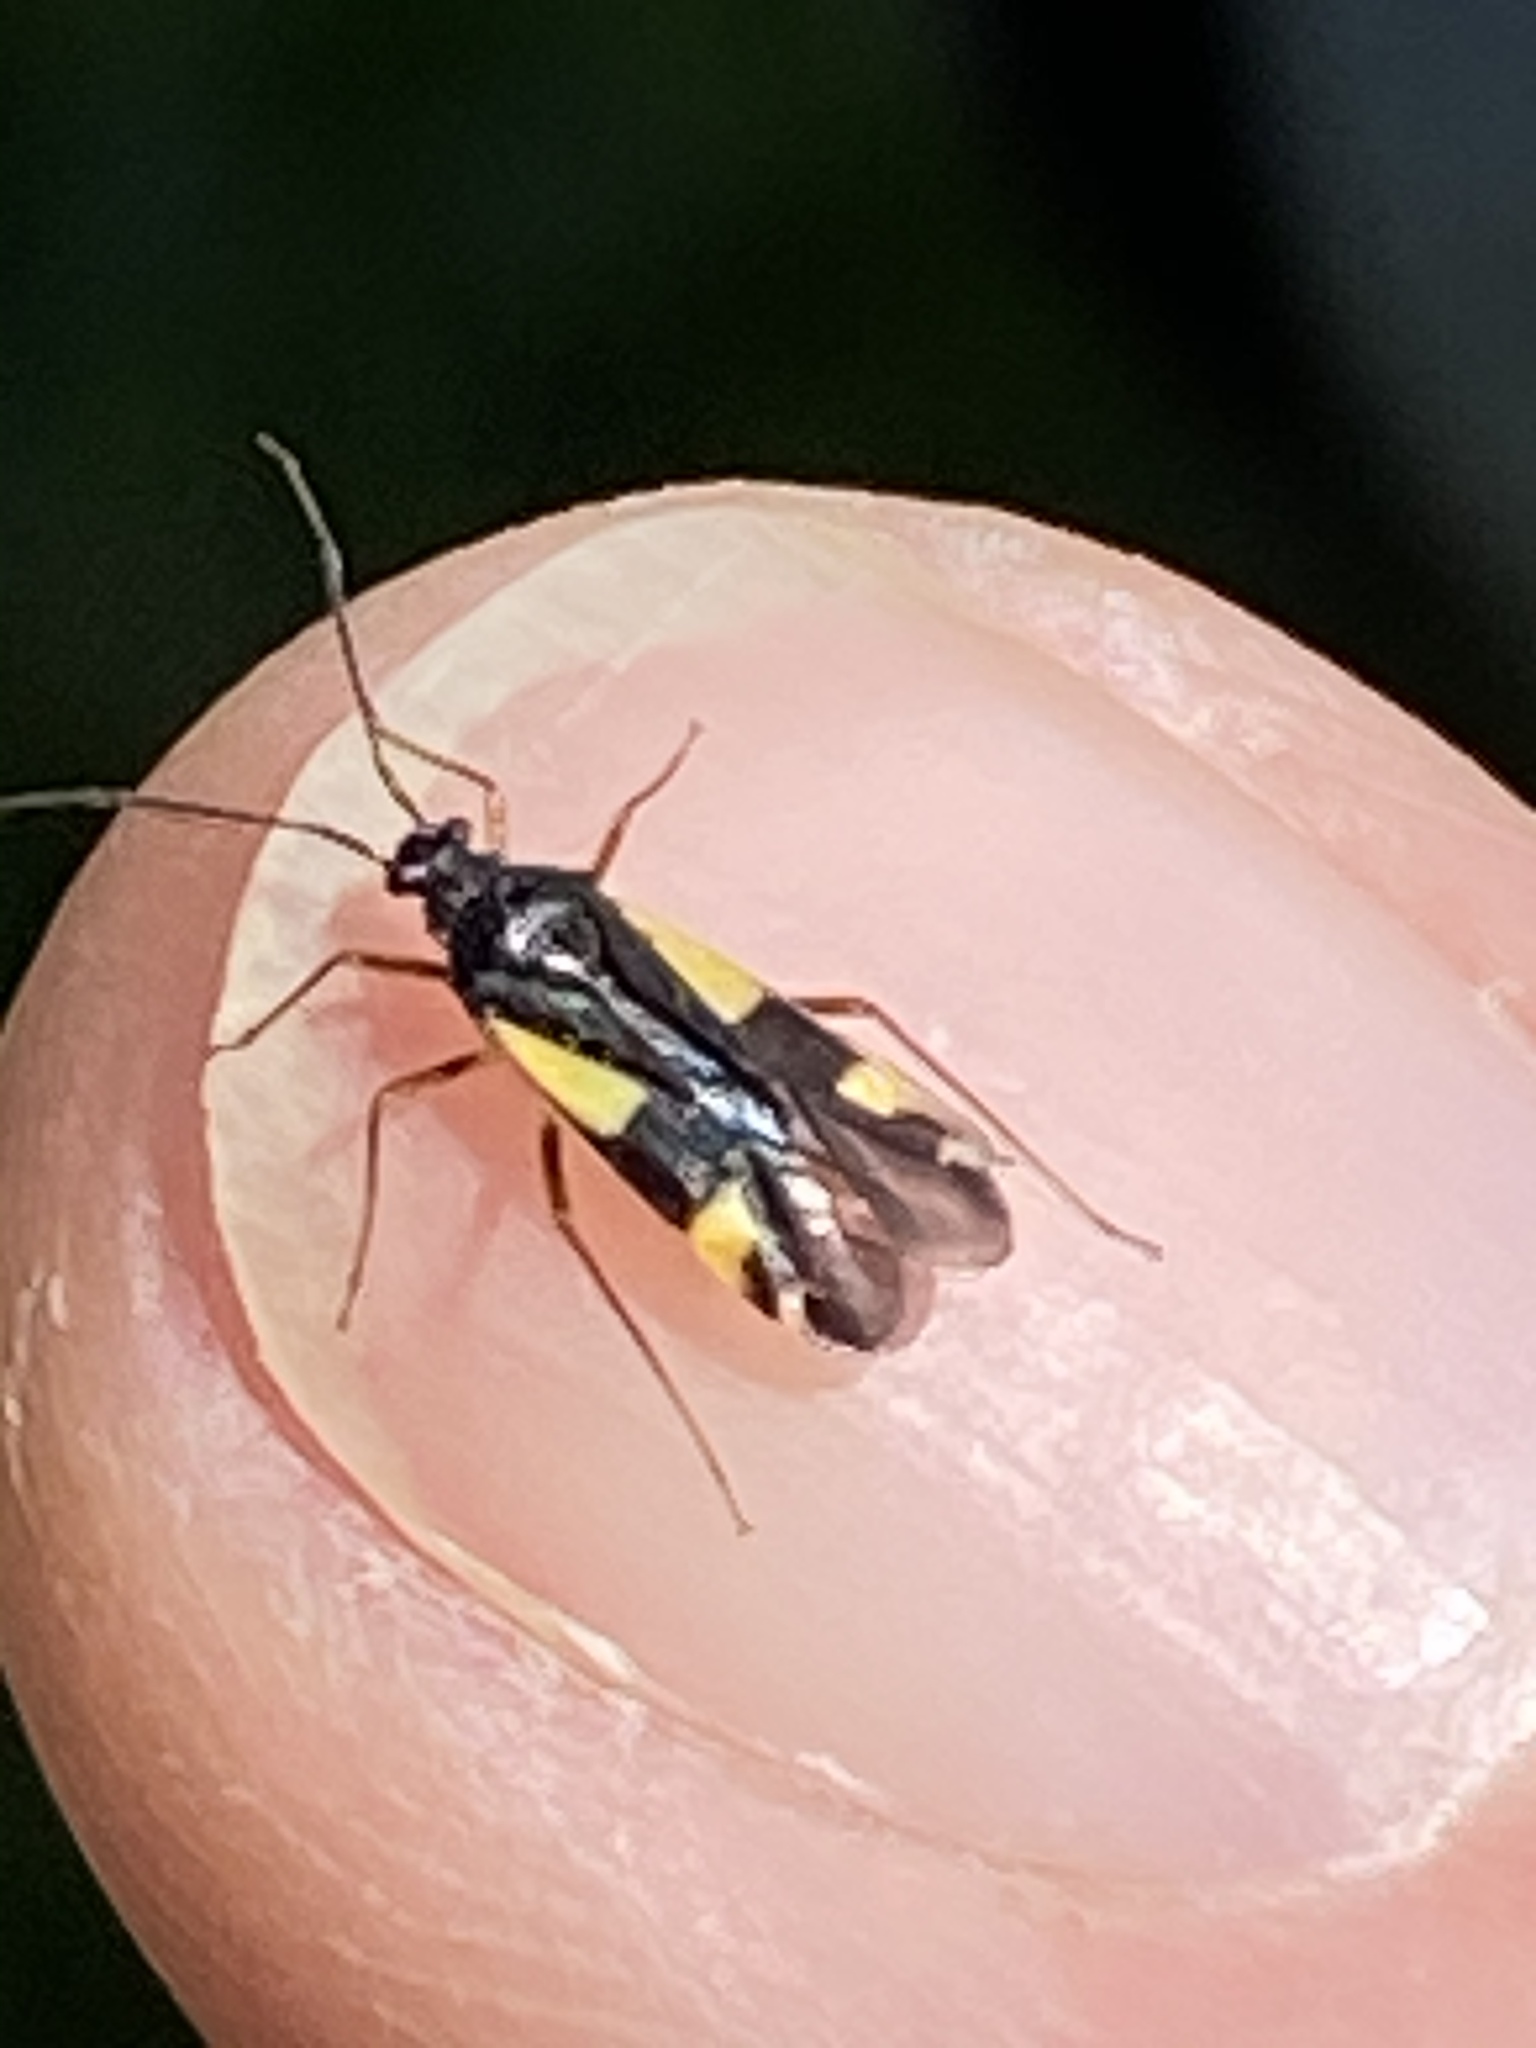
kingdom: Animalia
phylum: Arthropoda
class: Insecta
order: Hemiptera
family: Miridae
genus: Dryophilocoris
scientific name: Dryophilocoris flavoquadrimaculatus
